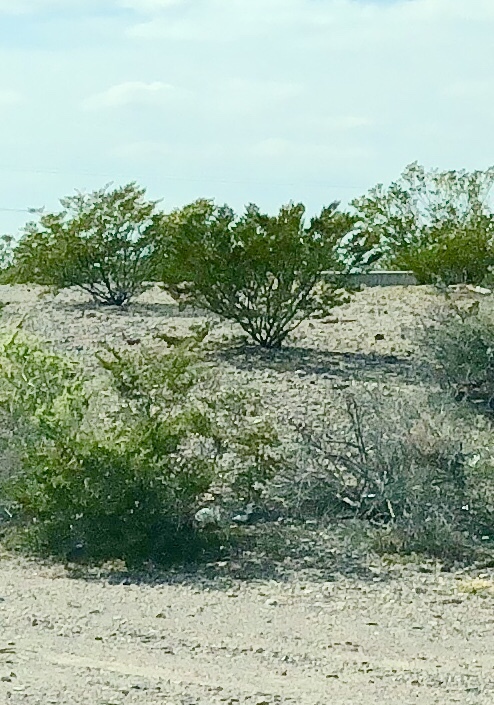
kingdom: Plantae
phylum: Tracheophyta
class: Magnoliopsida
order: Zygophyllales
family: Zygophyllaceae
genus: Larrea
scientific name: Larrea tridentata
